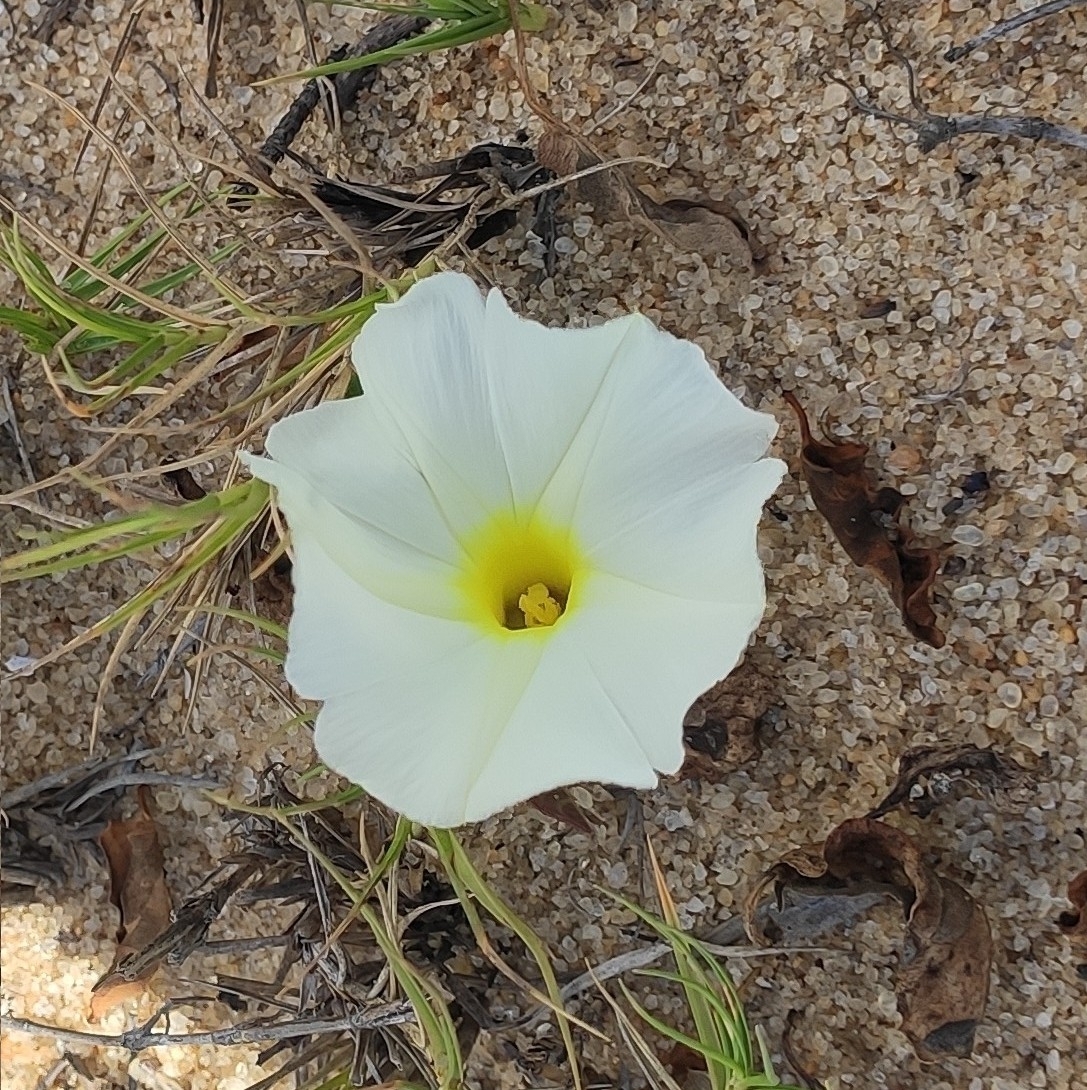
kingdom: Plantae
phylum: Tracheophyta
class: Magnoliopsida
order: Solanales
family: Convolvulaceae
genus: Ipomoea
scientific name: Ipomoea imperati
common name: Fiddle-leaf morning-glory
